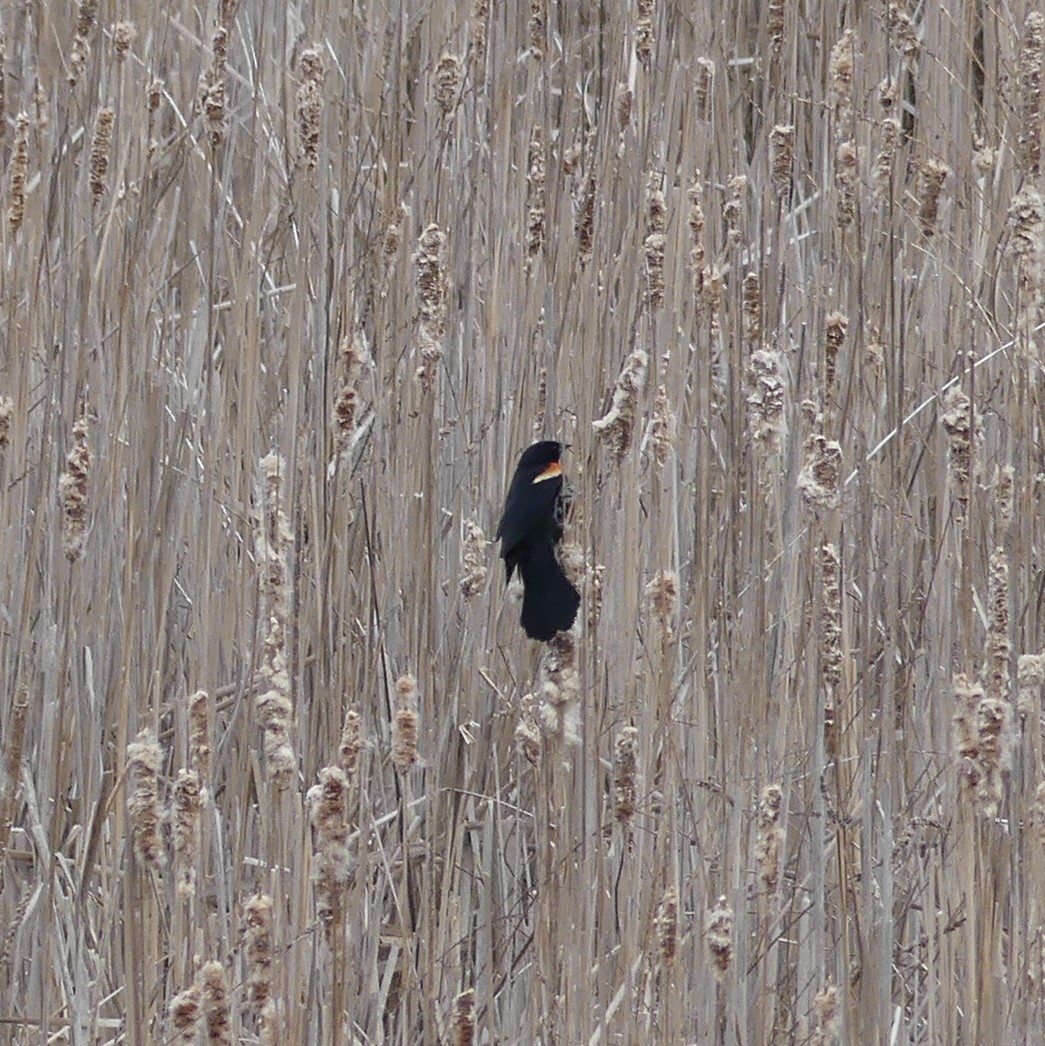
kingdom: Animalia
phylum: Chordata
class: Aves
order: Passeriformes
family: Icteridae
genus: Agelaius
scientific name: Agelaius phoeniceus
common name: Red-winged blackbird
